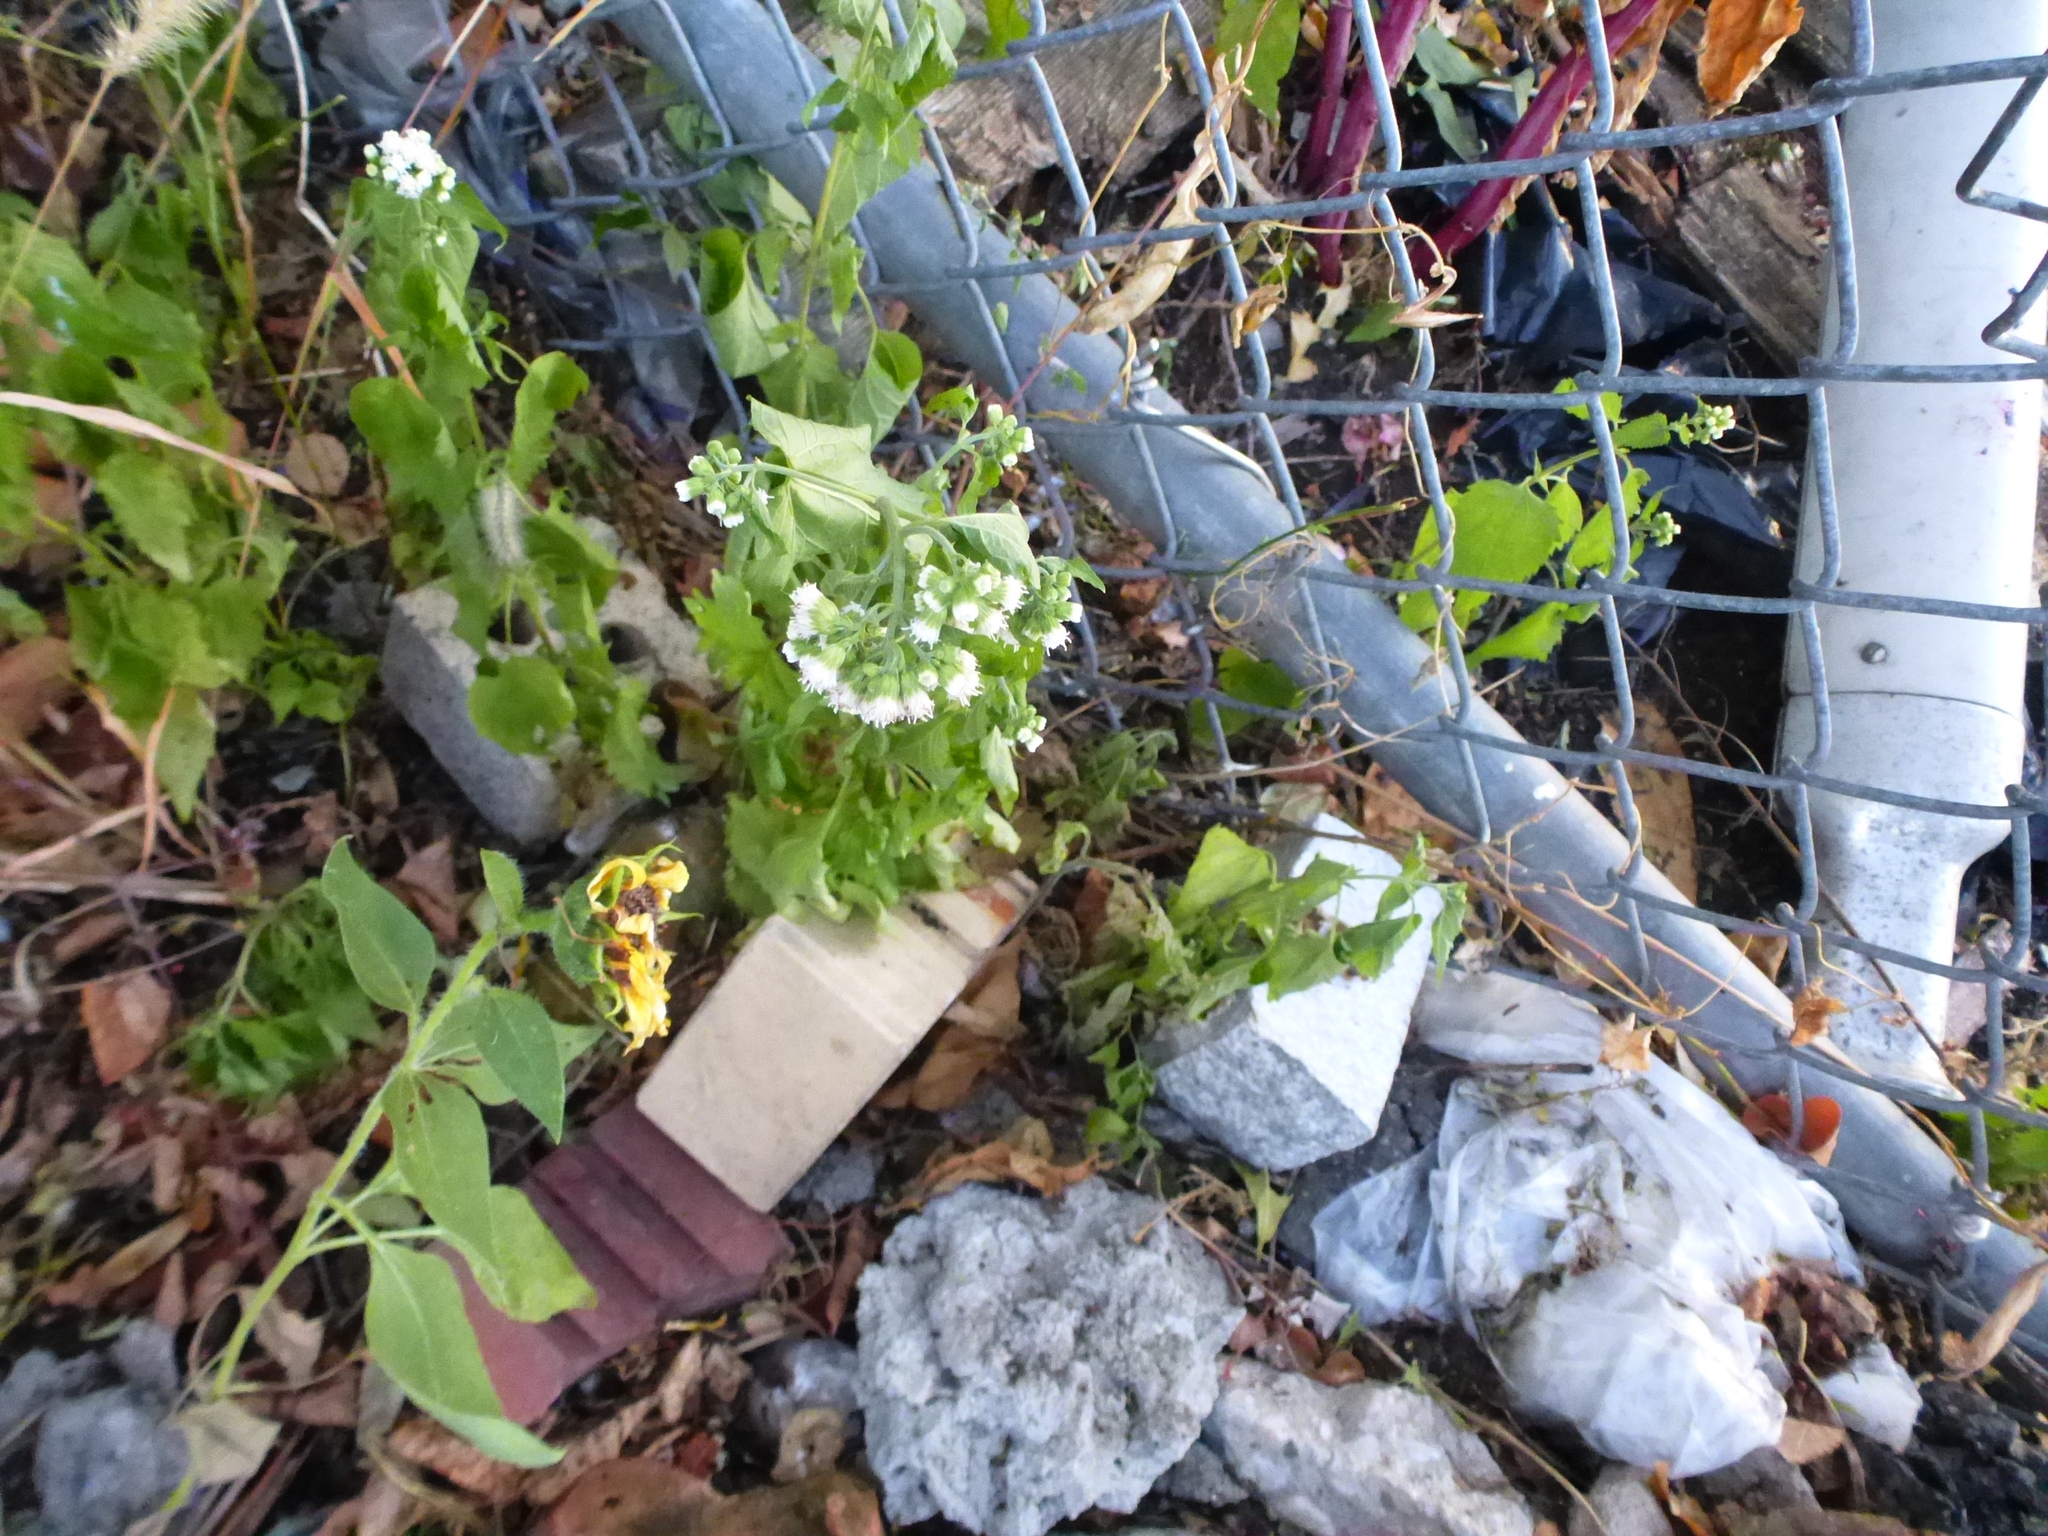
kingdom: Plantae
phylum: Tracheophyta
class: Magnoliopsida
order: Asterales
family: Asteraceae
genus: Ageratina
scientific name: Ageratina altissima
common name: White snakeroot
